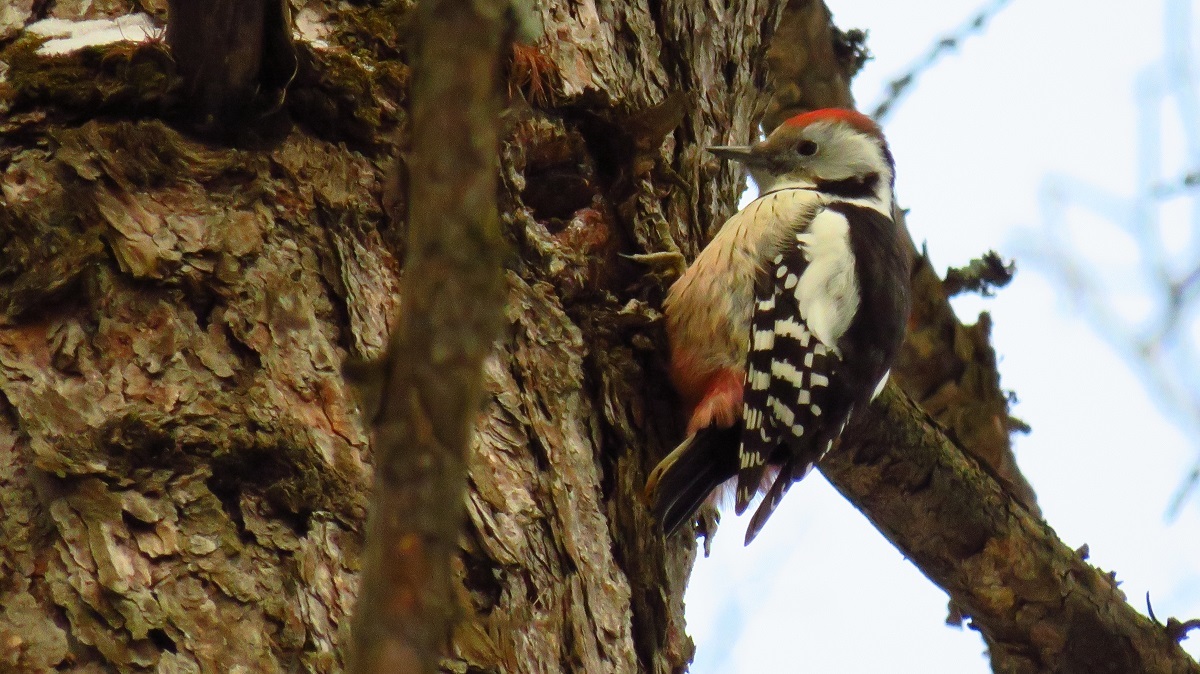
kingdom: Animalia
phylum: Chordata
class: Aves
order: Piciformes
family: Picidae
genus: Dendrocoptes
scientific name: Dendrocoptes medius
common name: Middle spotted woodpecker
